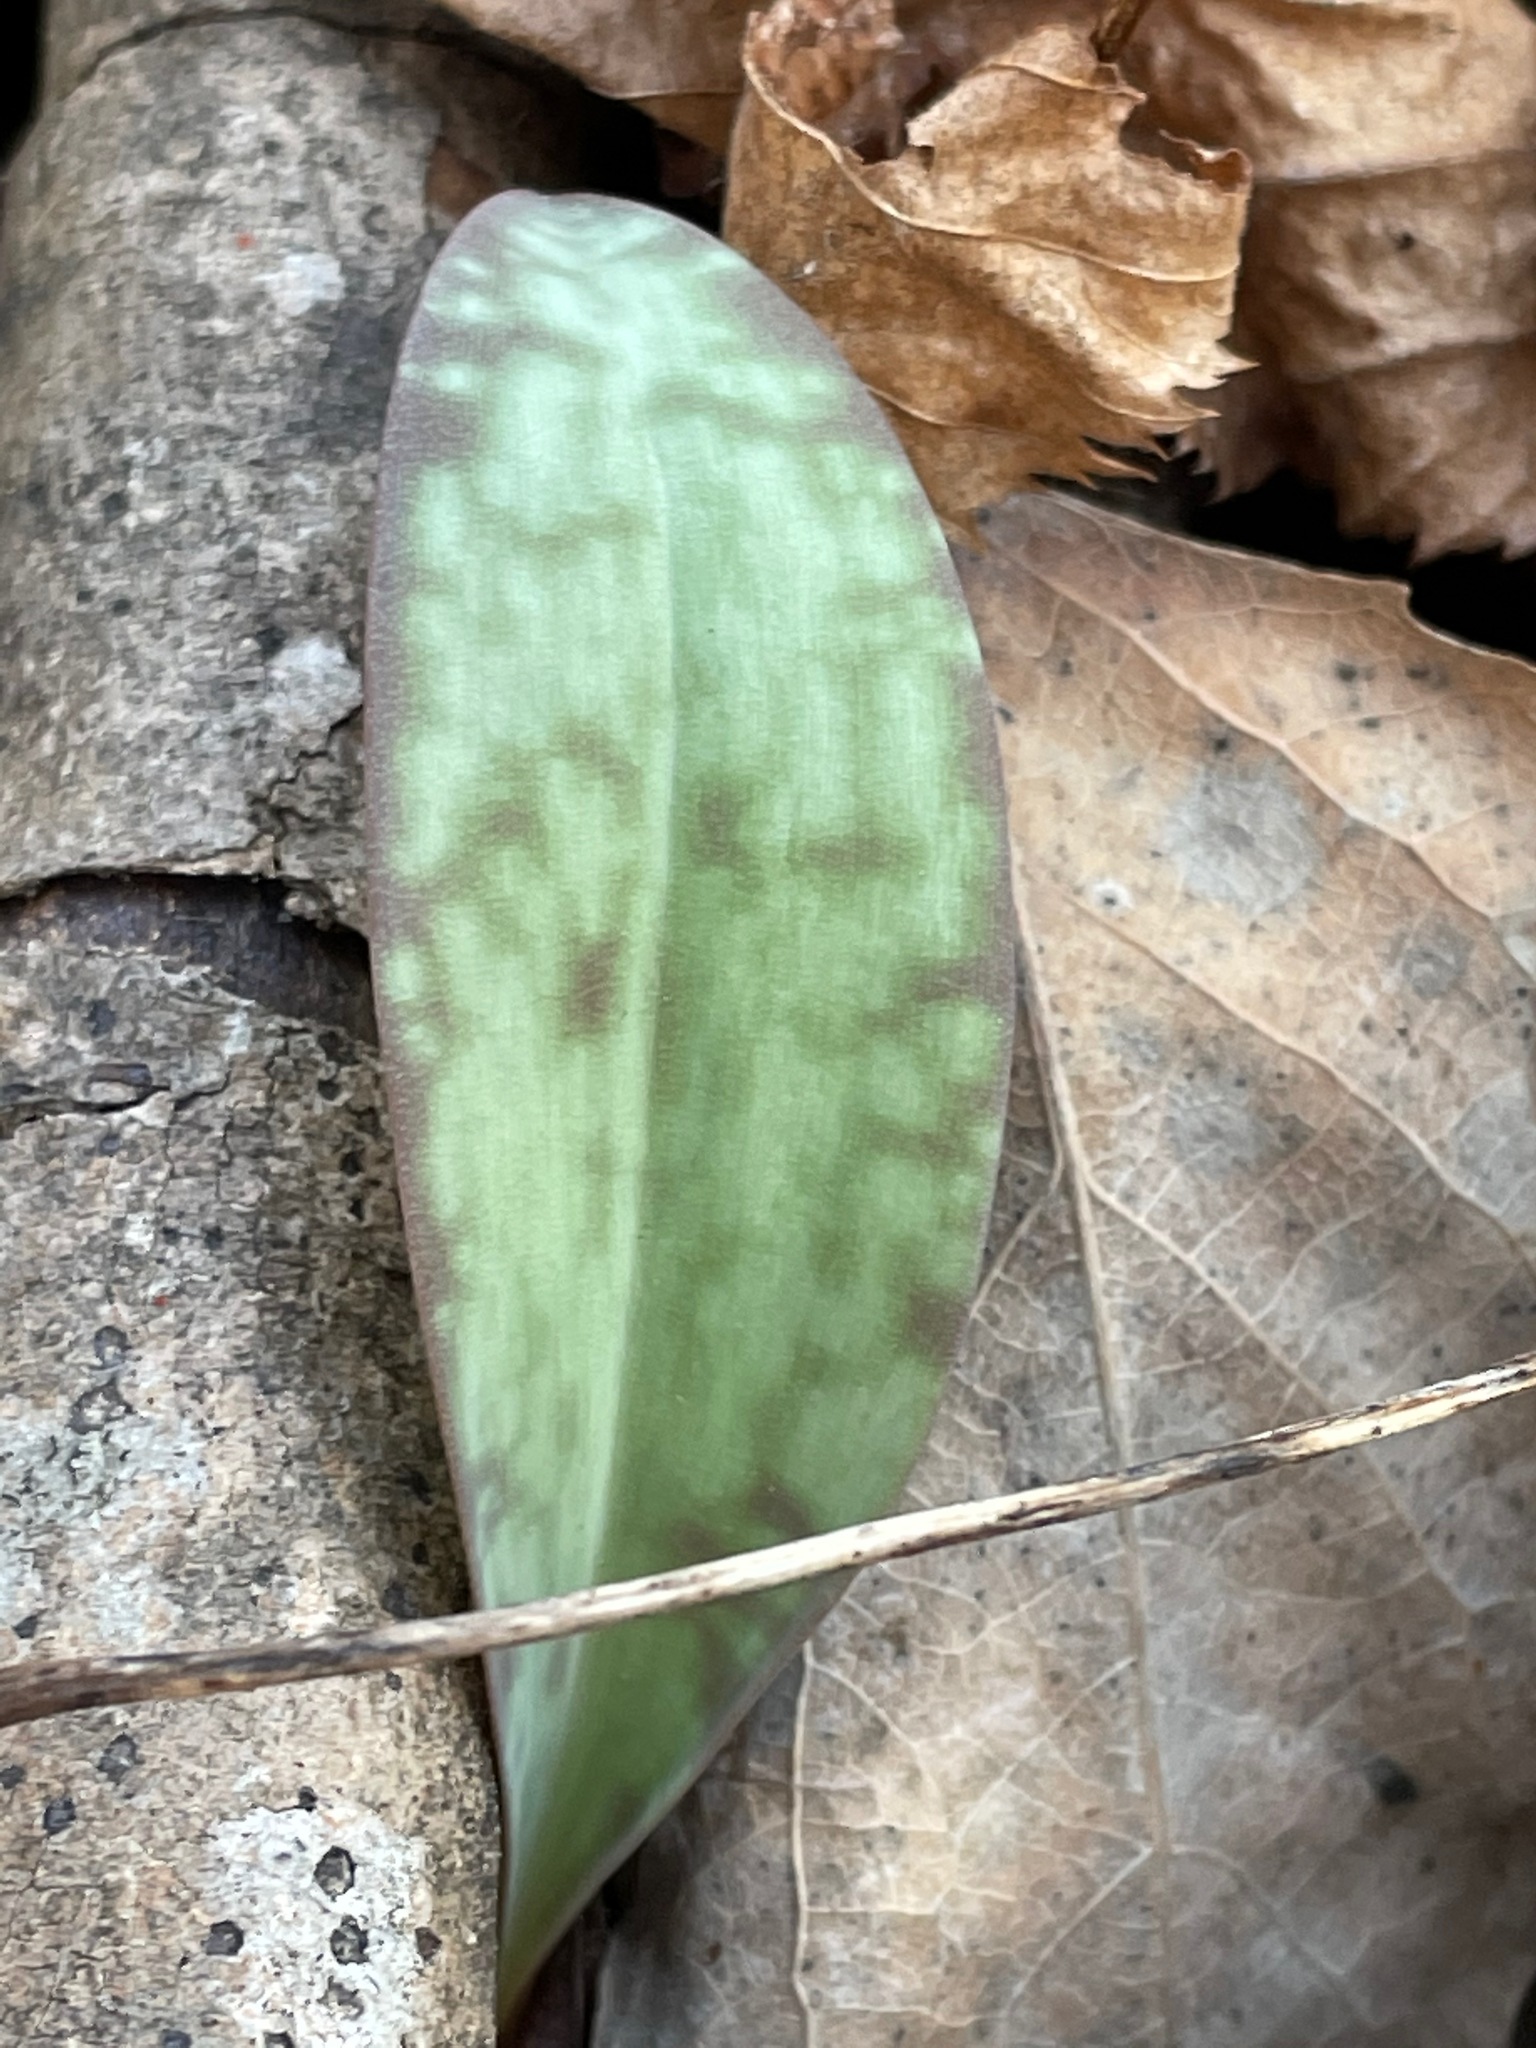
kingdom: Plantae
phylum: Tracheophyta
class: Liliopsida
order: Liliales
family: Liliaceae
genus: Erythronium
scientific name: Erythronium americanum
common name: Yellow adder's-tongue
